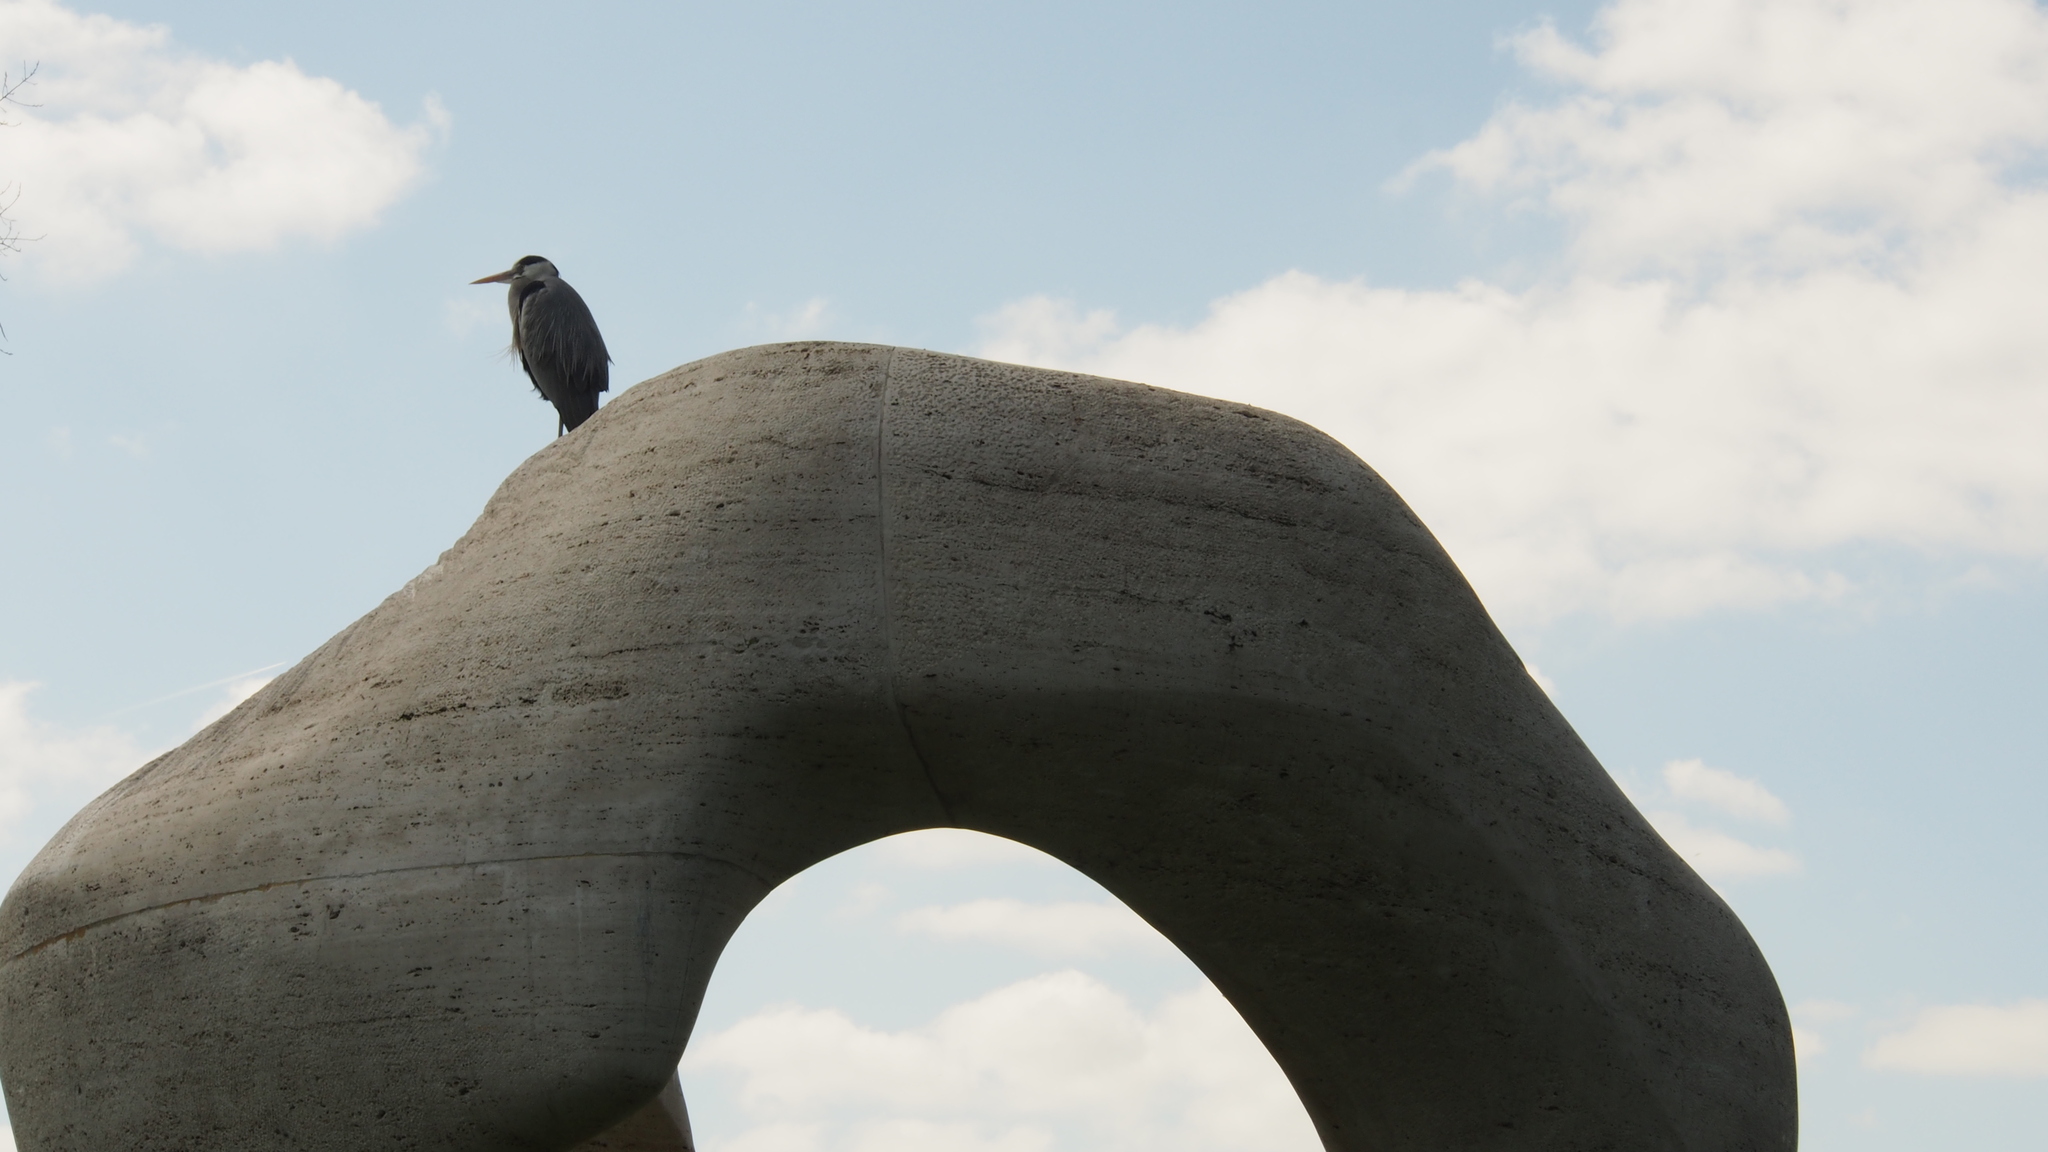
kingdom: Animalia
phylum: Chordata
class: Aves
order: Pelecaniformes
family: Ardeidae
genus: Ardea
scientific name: Ardea cinerea
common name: Grey heron
